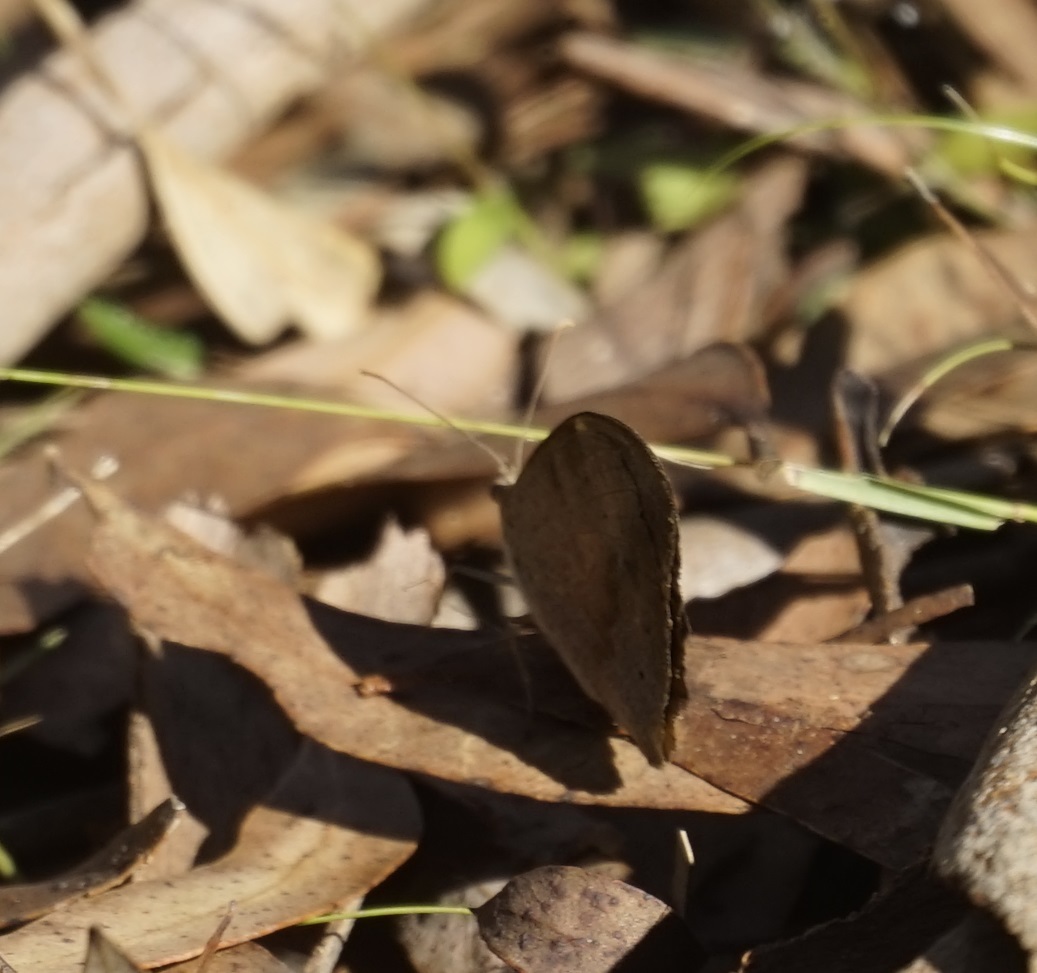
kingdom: Animalia
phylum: Arthropoda
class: Insecta
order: Lepidoptera
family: Nymphalidae
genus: Heteronympha
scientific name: Heteronympha merope
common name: Common brown
